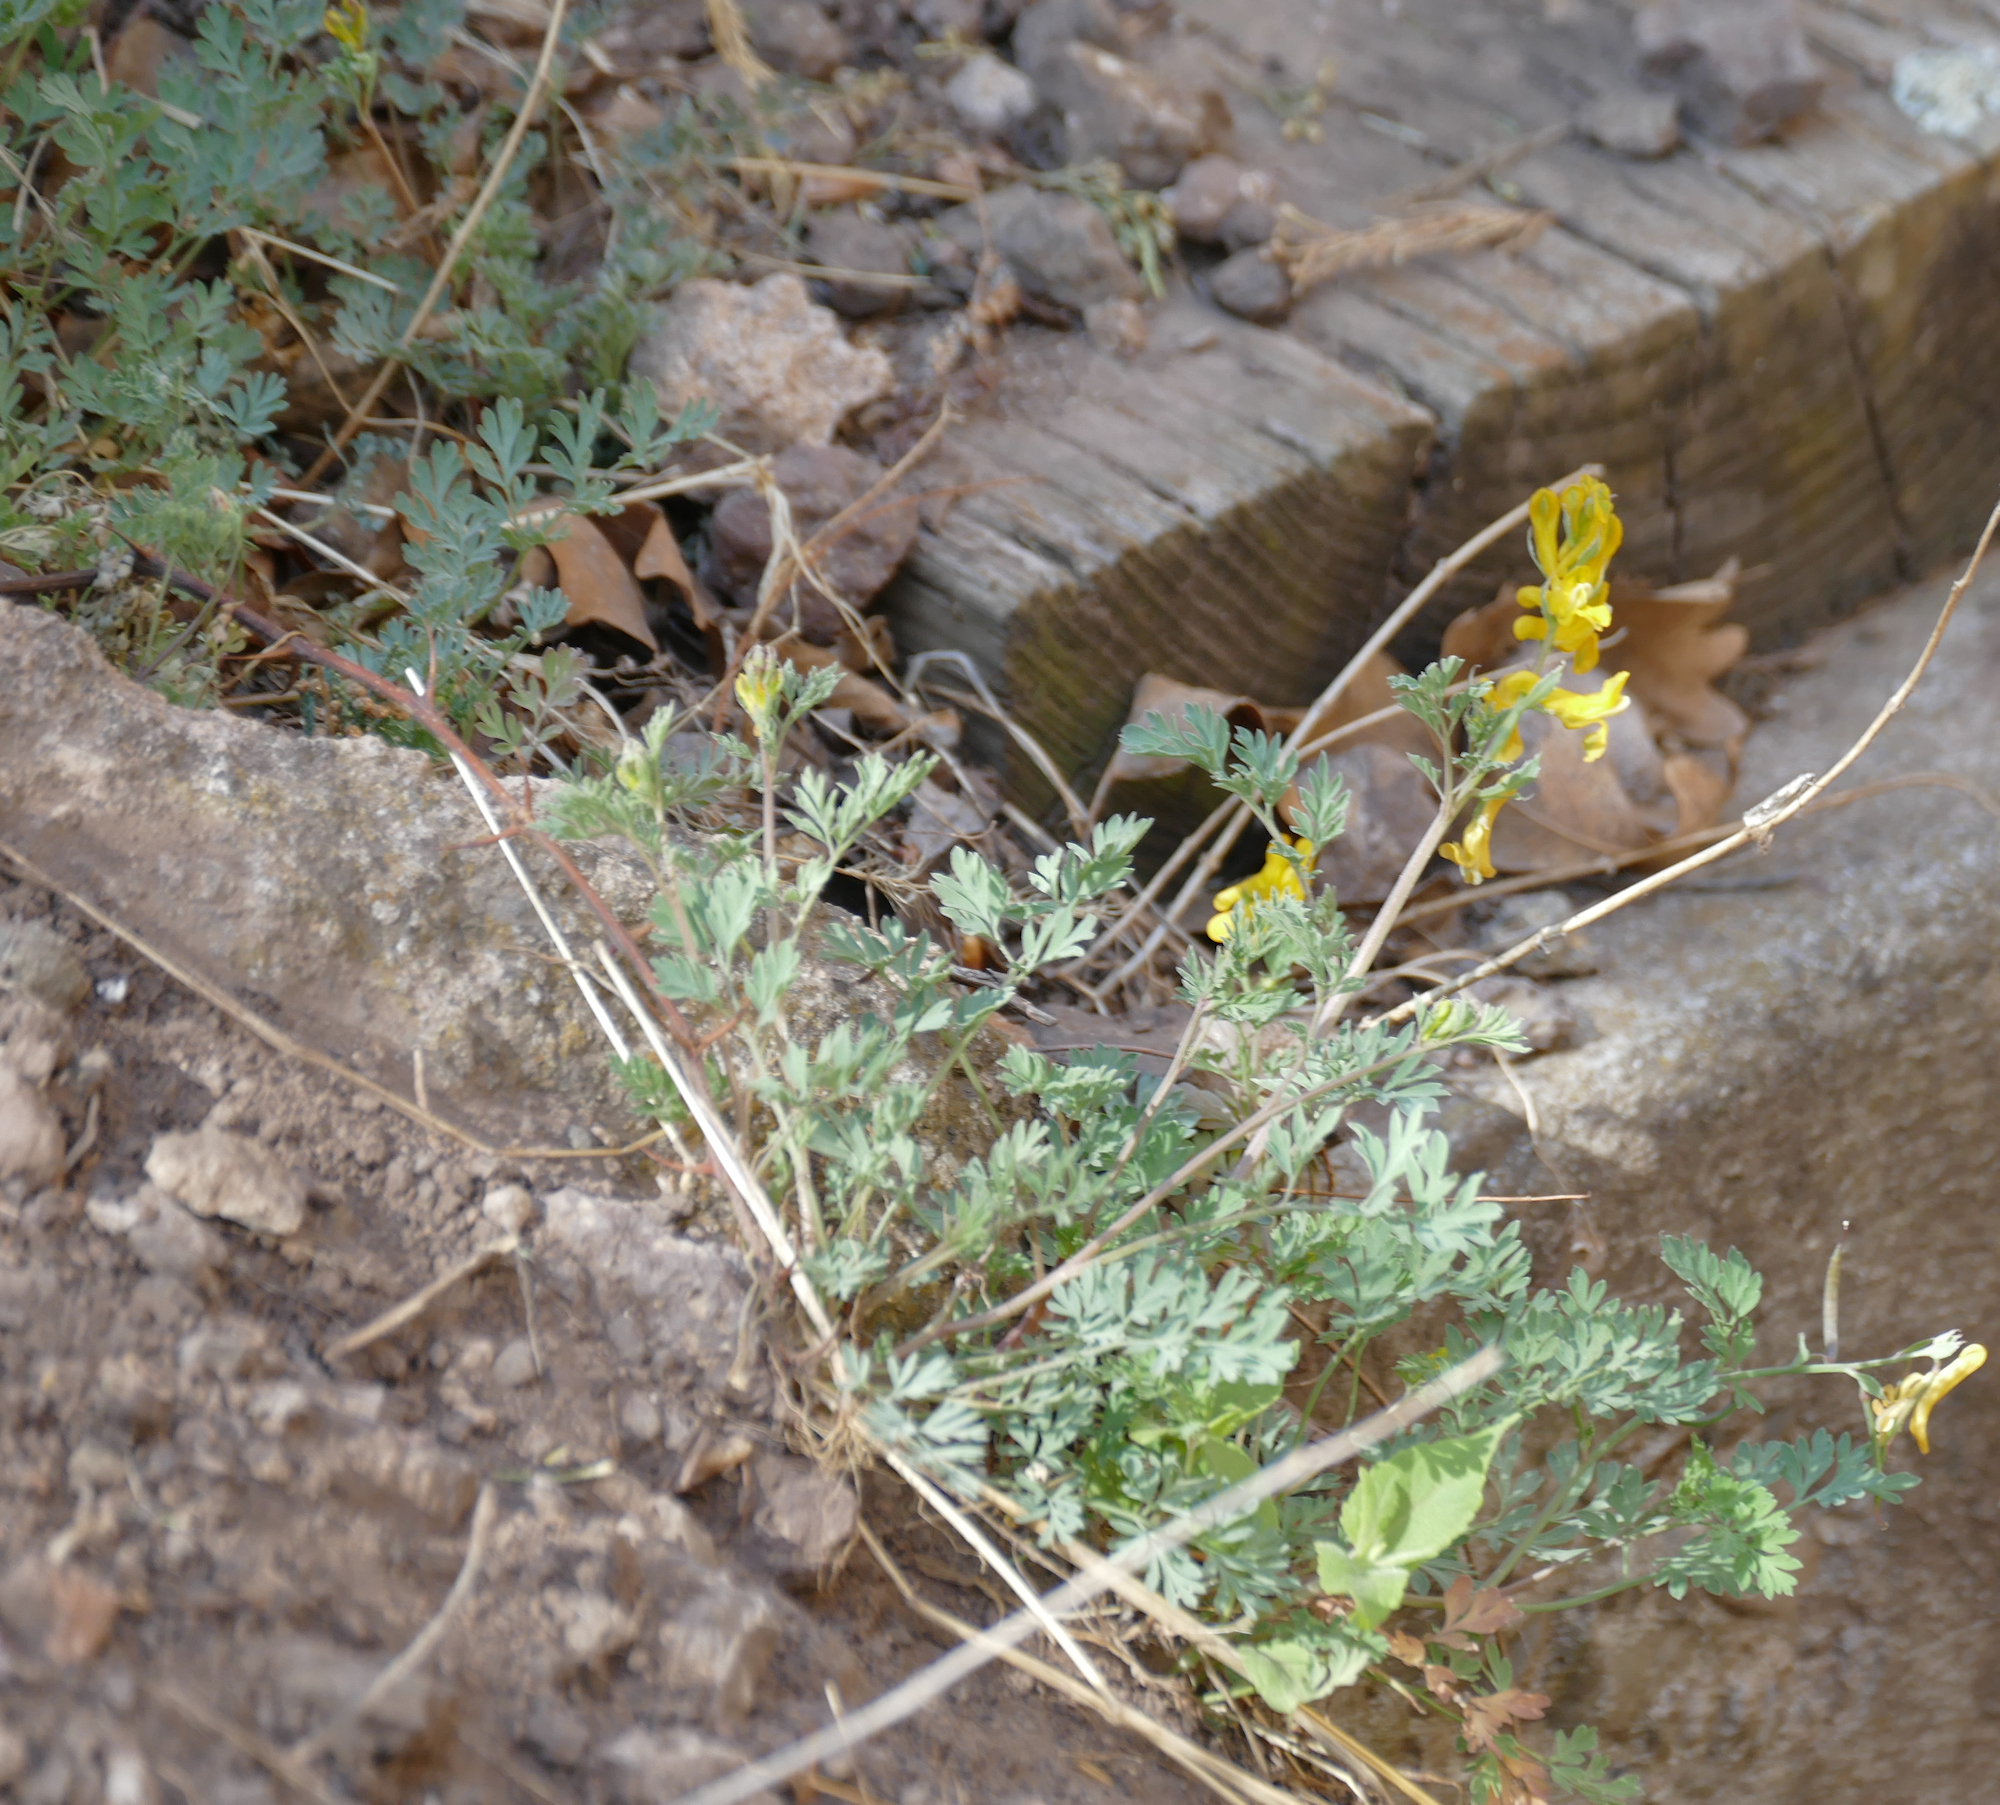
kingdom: Plantae
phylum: Tracheophyta
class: Magnoliopsida
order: Ranunculales
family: Papaveraceae
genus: Corydalis
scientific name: Corydalis aurea
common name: Golden corydalis
